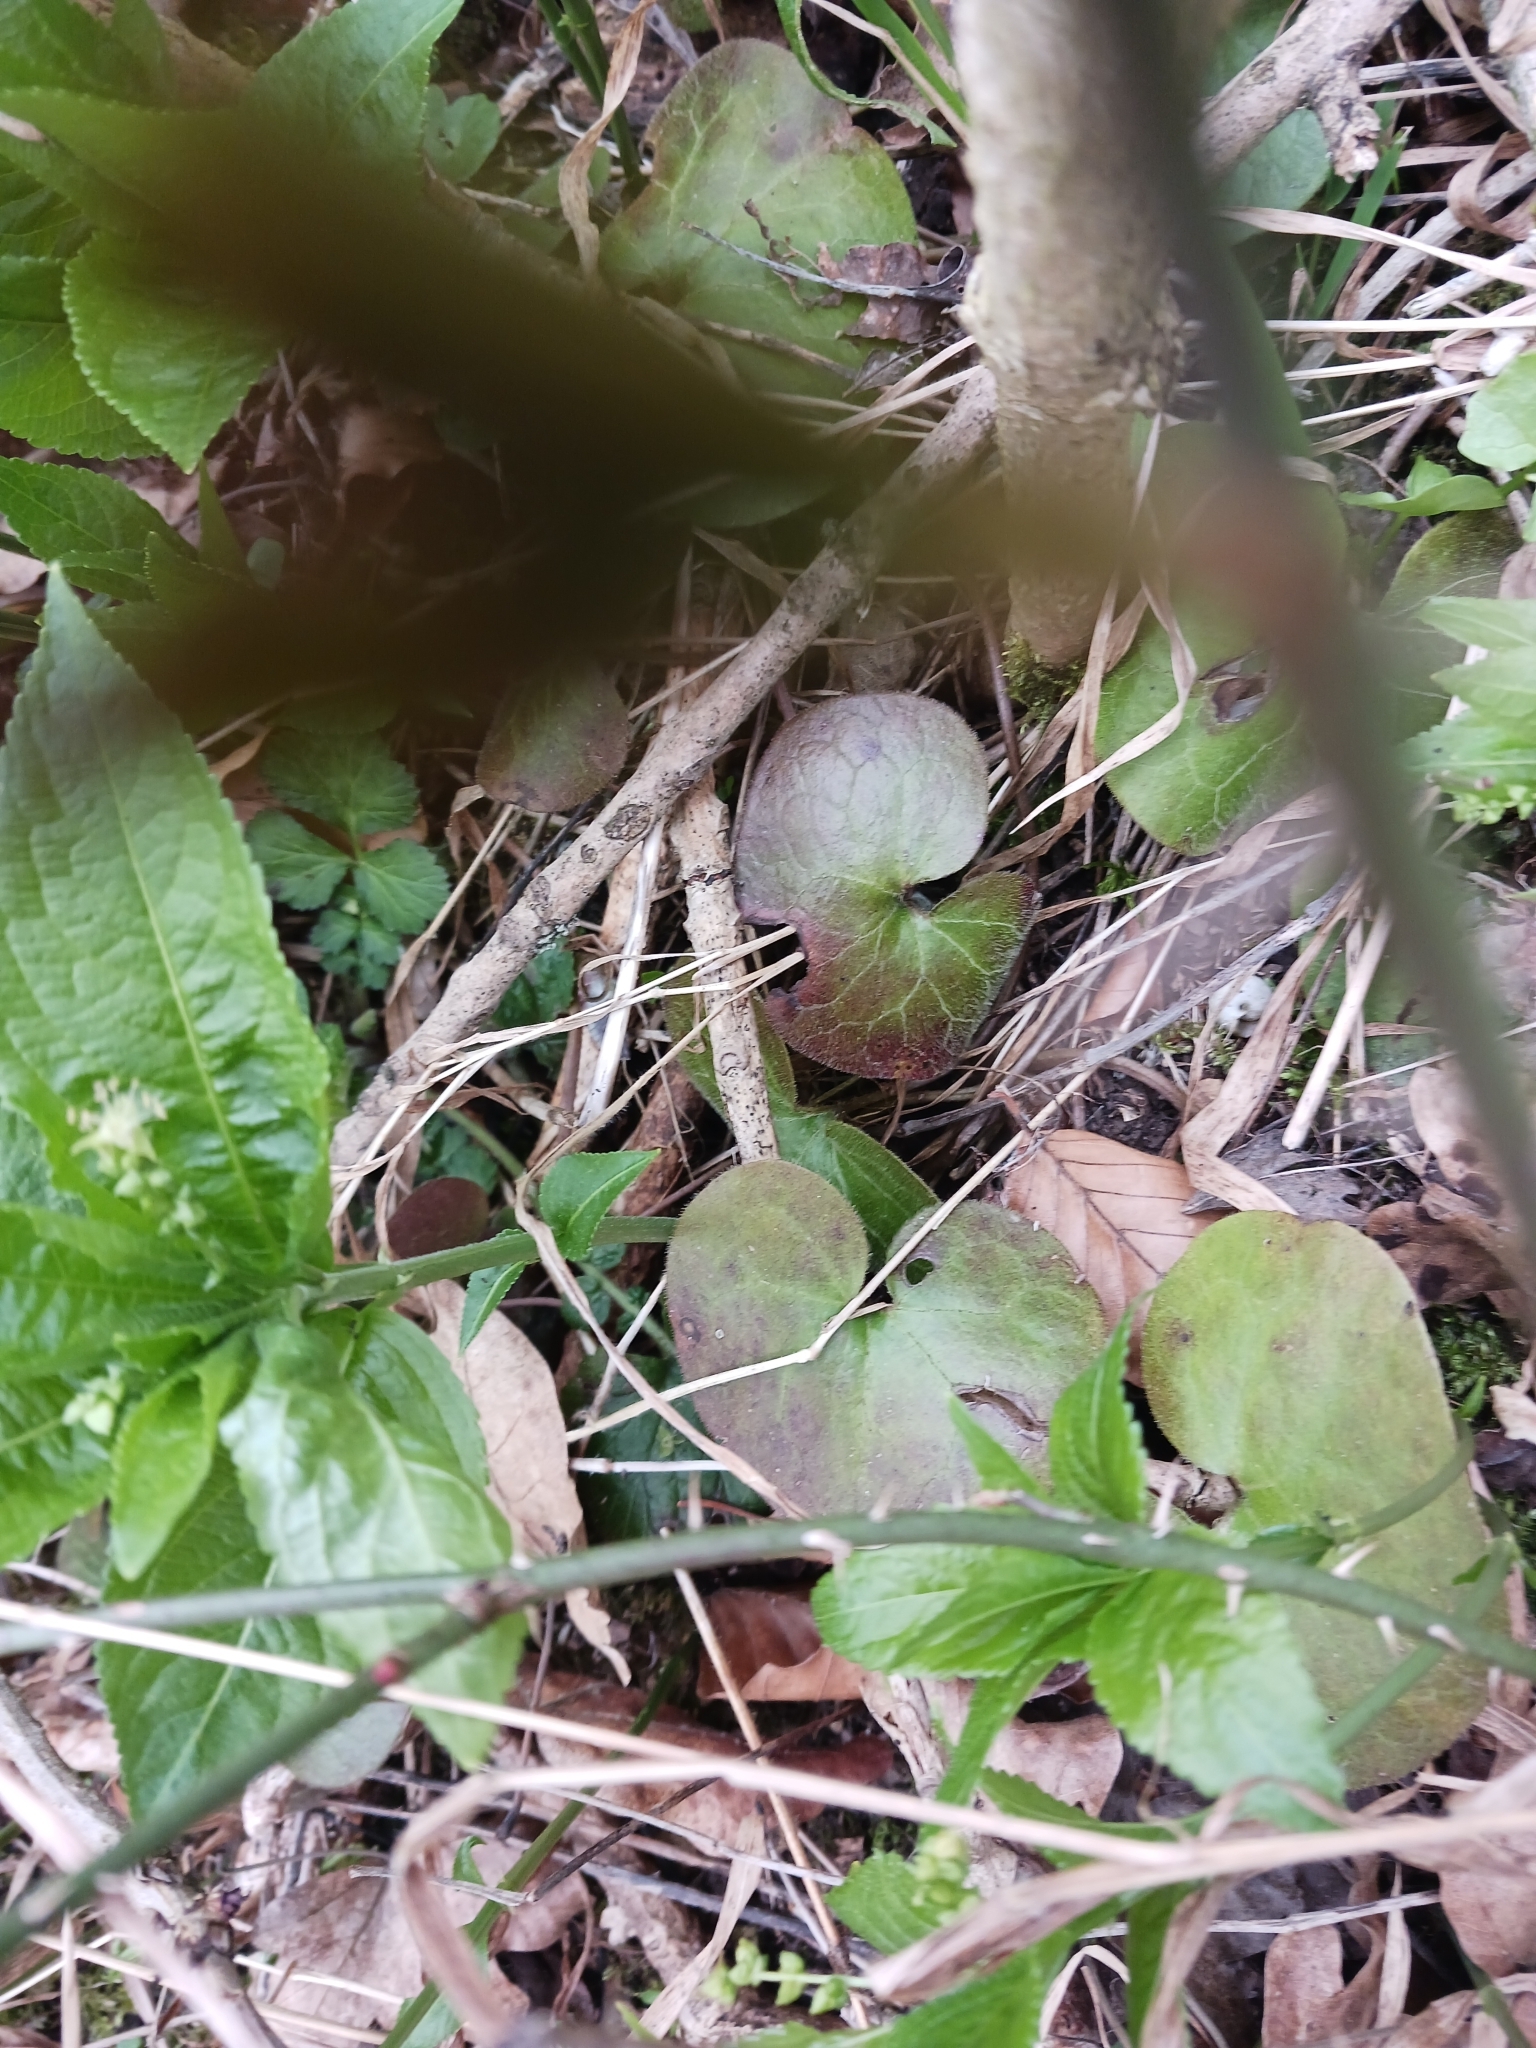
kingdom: Plantae
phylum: Tracheophyta
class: Magnoliopsida
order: Piperales
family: Aristolochiaceae
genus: Asarum
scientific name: Asarum europaeum
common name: Asarabacca
